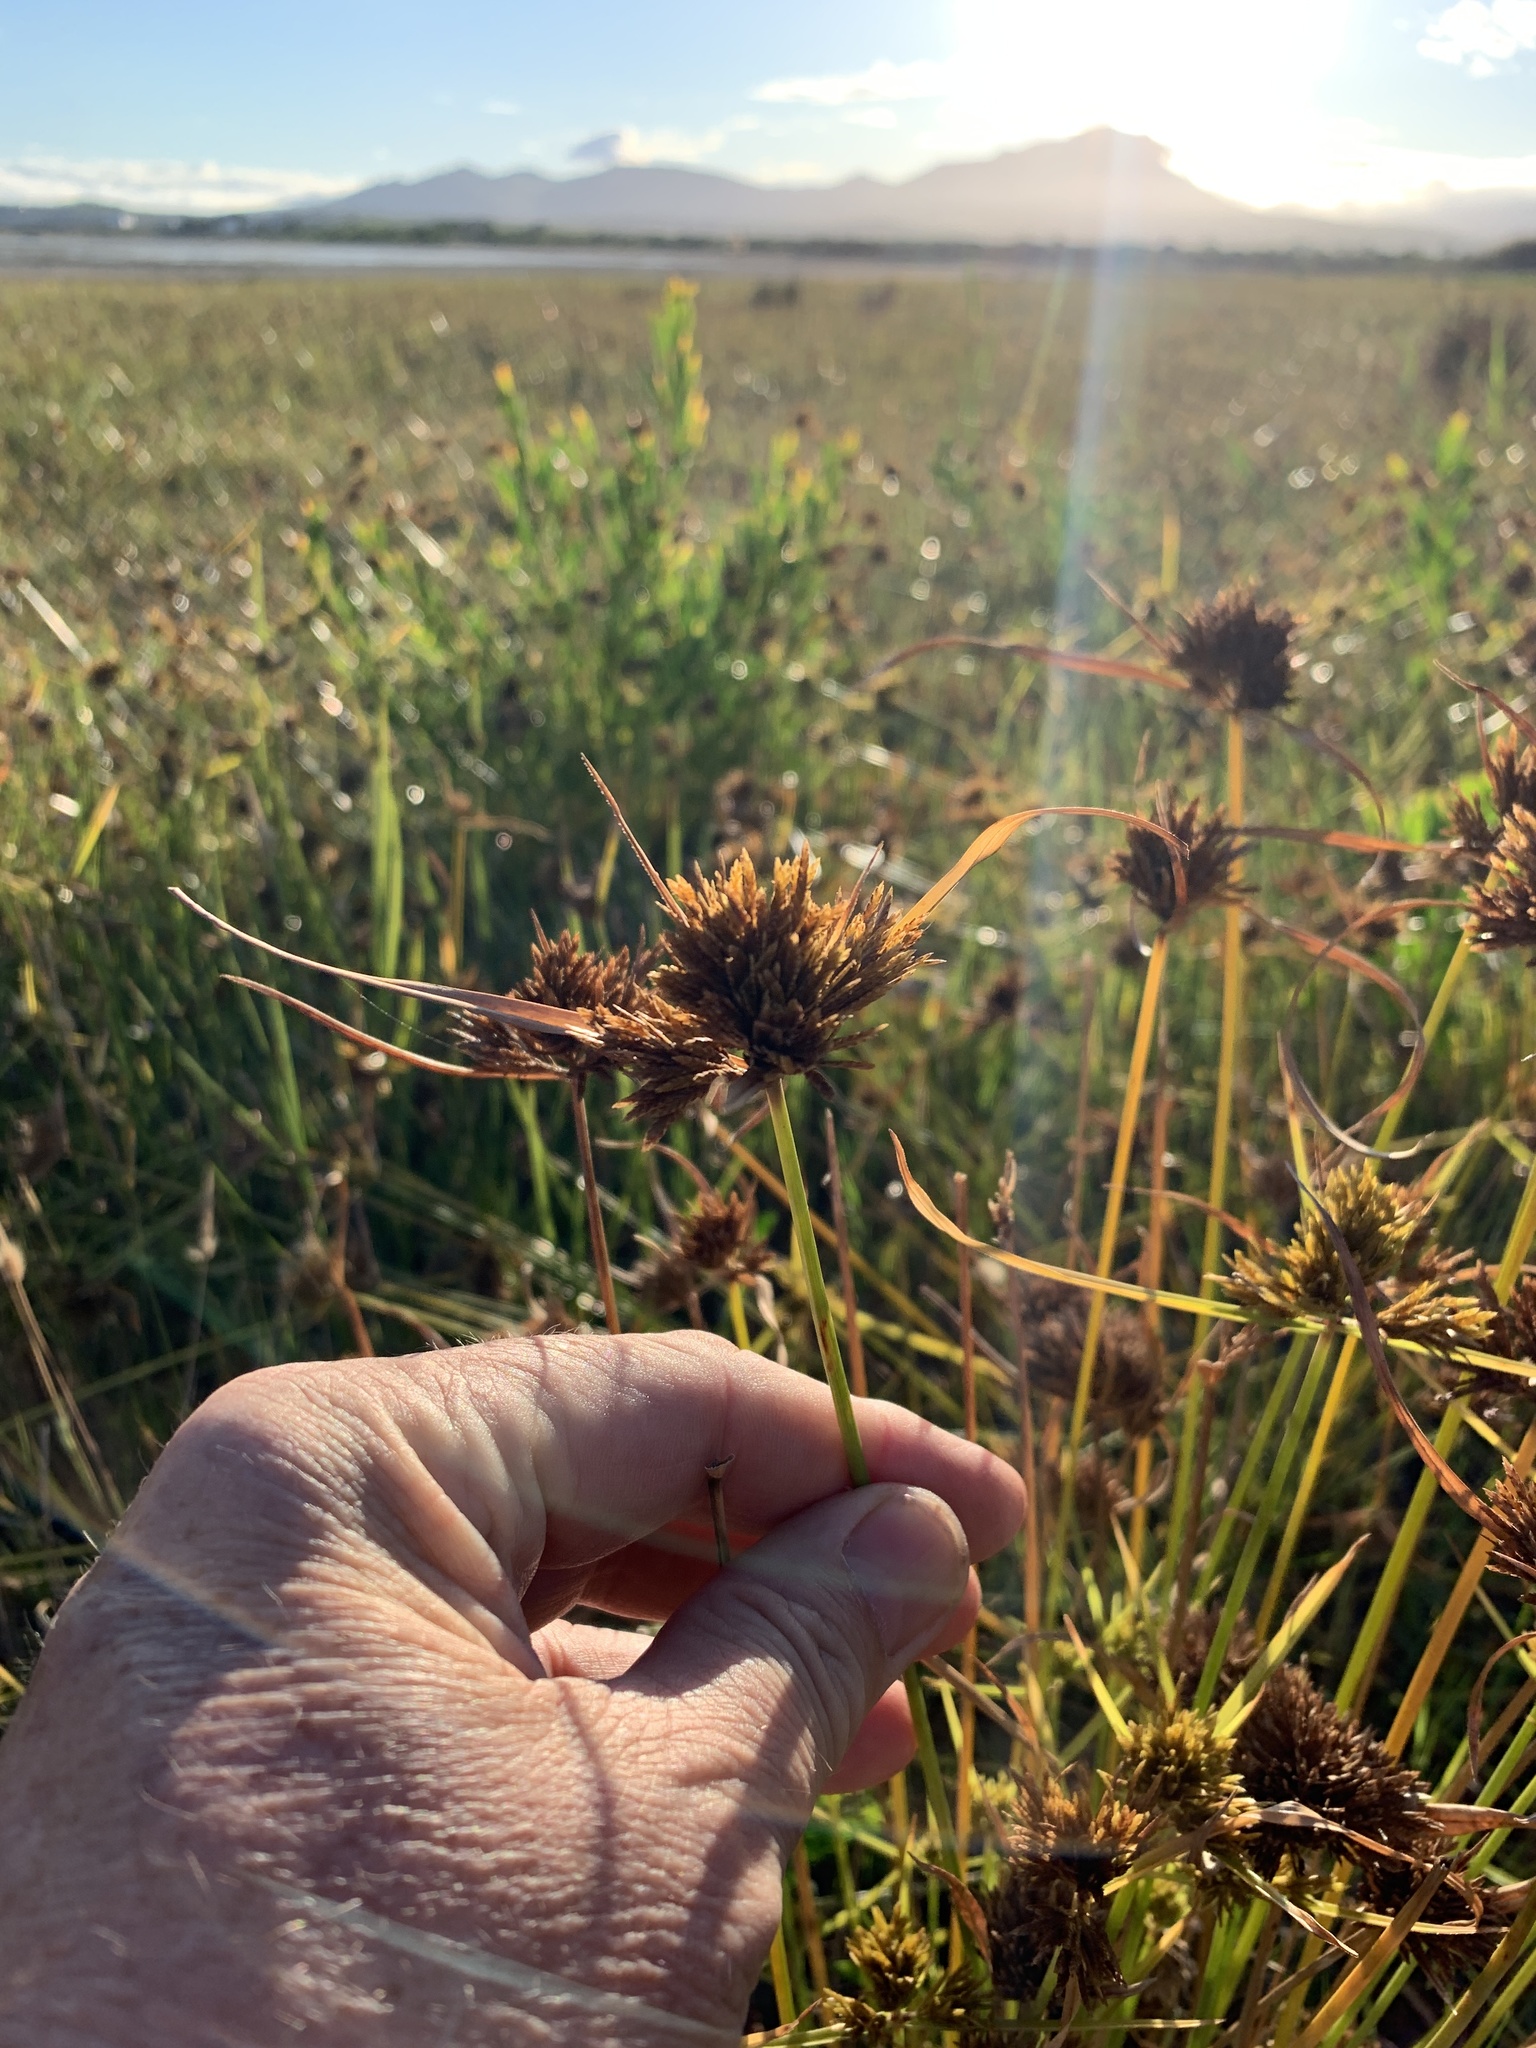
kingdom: Plantae
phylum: Tracheophyta
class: Liliopsida
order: Poales
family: Cyperaceae
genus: Cyperus
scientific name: Cyperus polystachyos
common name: Bunchy flat sedge
